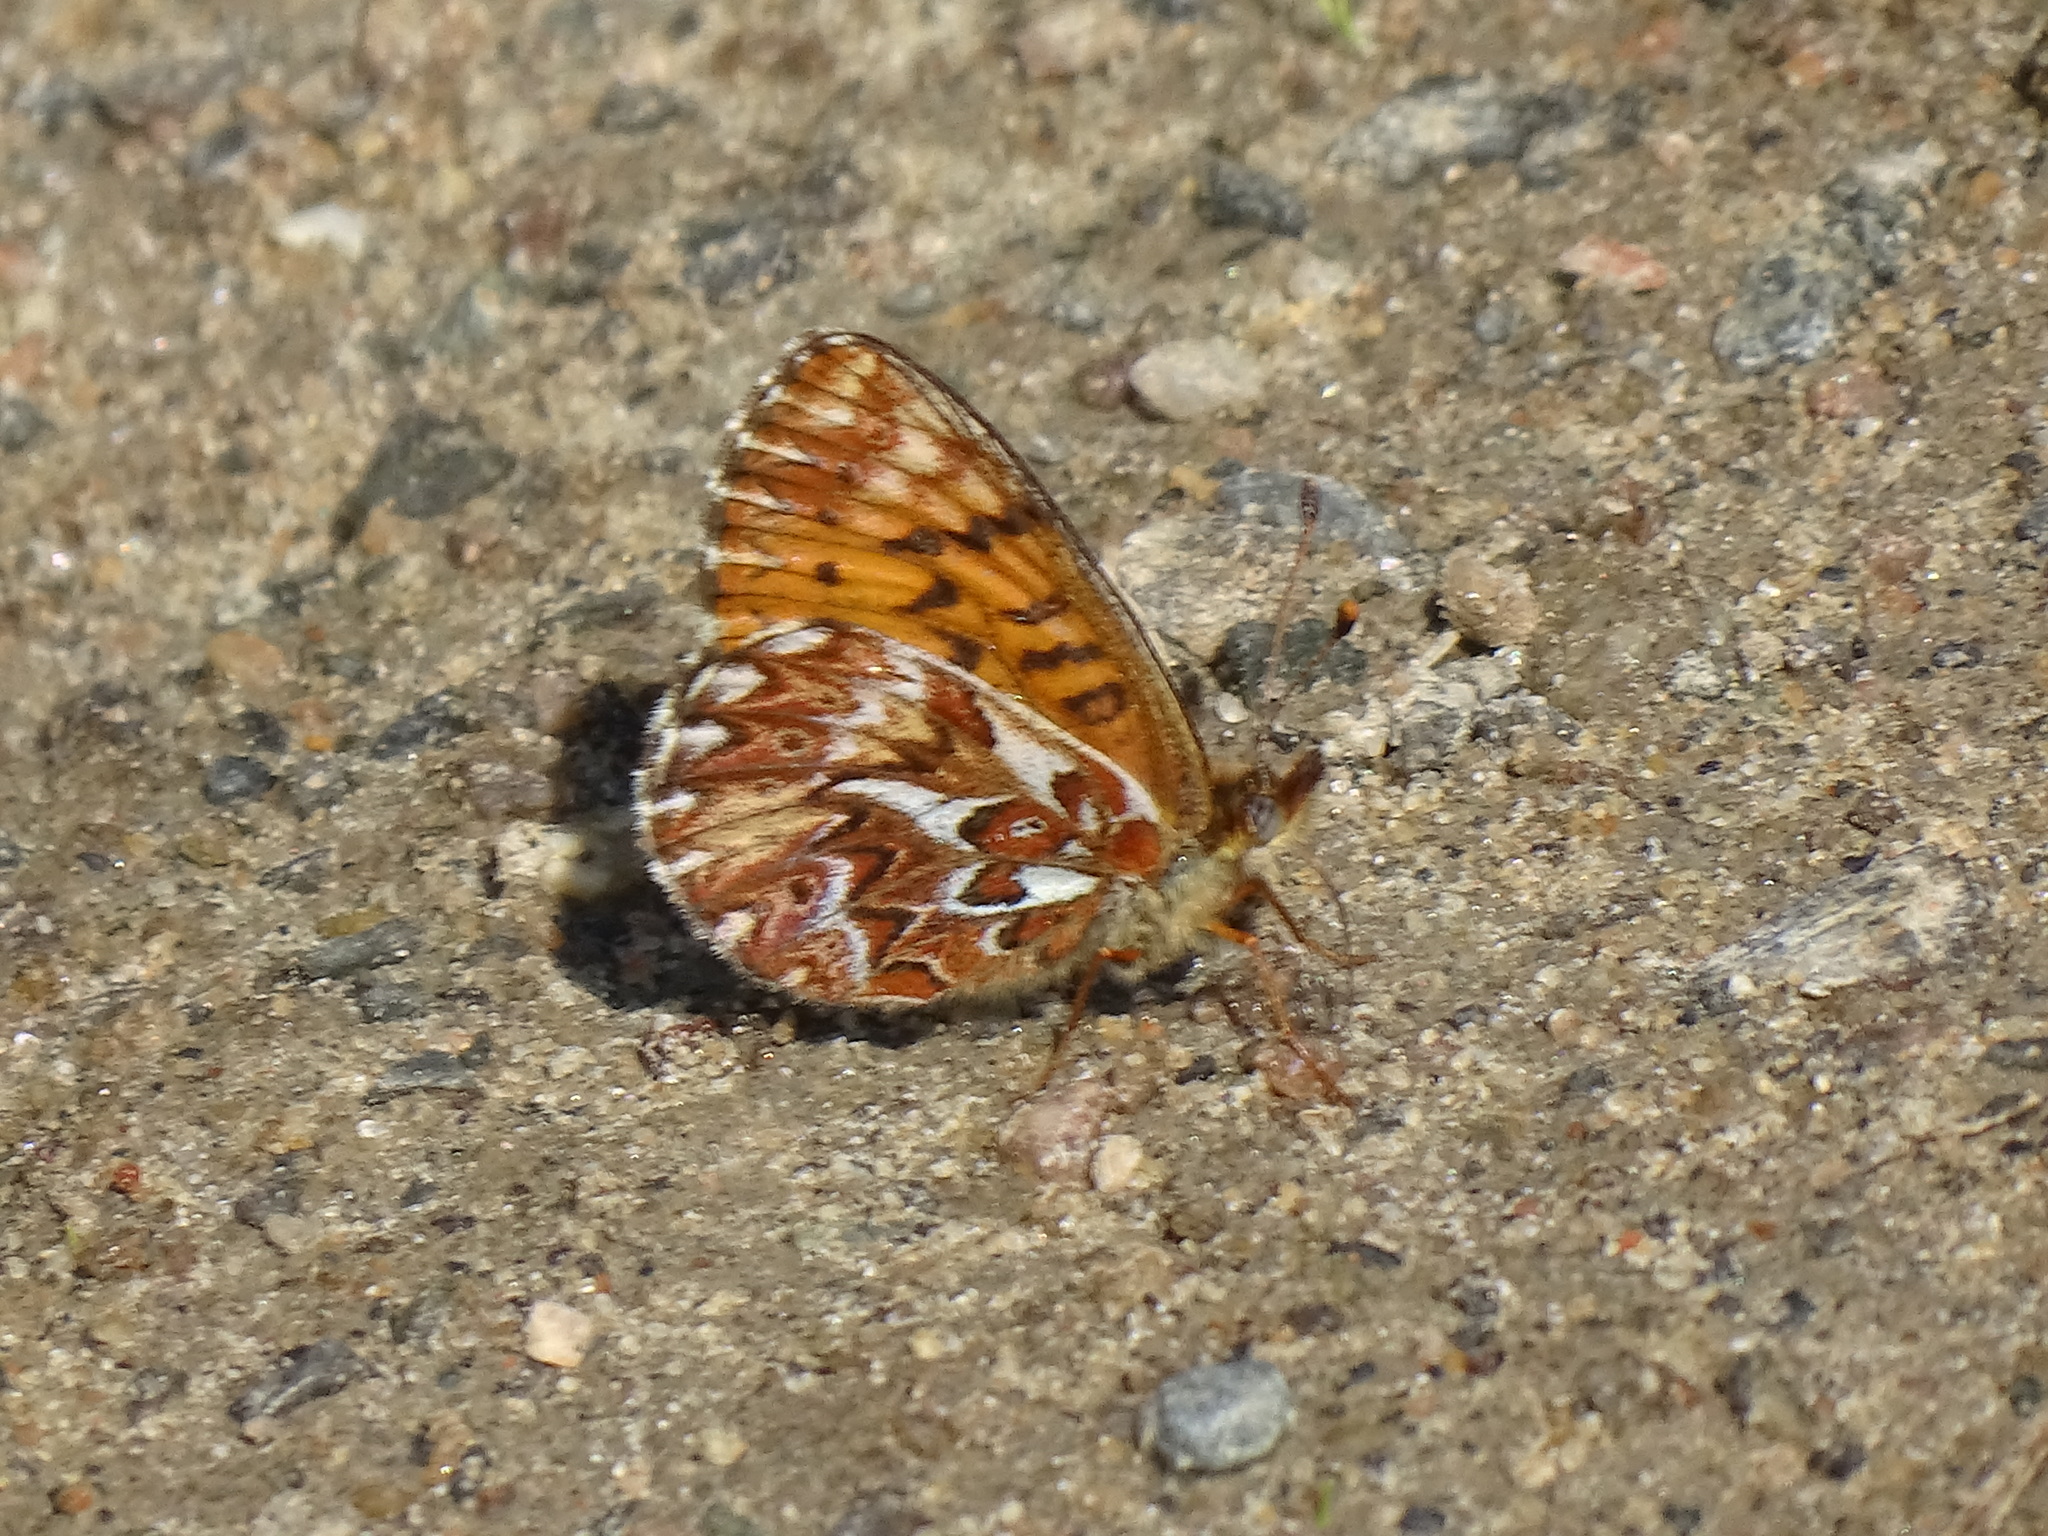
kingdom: Animalia
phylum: Arthropoda
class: Insecta
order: Lepidoptera
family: Nymphalidae
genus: Boloria
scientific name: Boloria freija
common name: Freija fritillary
